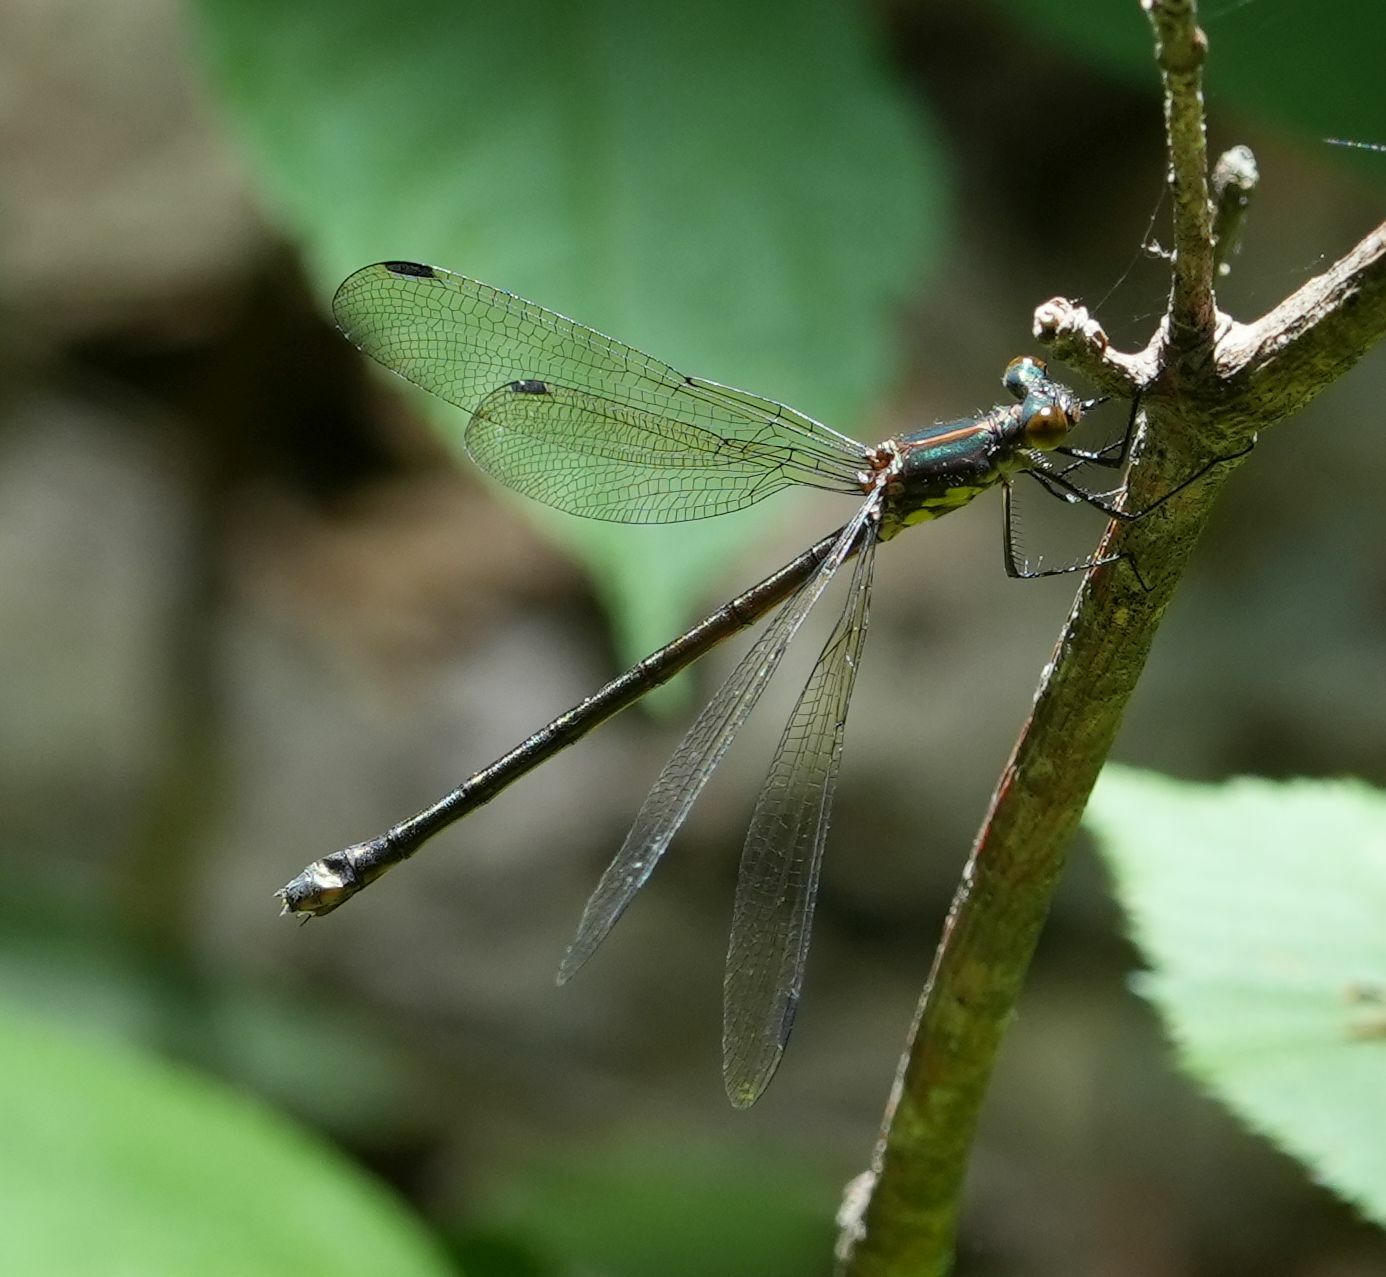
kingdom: Animalia
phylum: Arthropoda
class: Insecta
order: Odonata
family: Lestidae
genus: Lestes
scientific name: Lestes eurinus
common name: Amber-winged spreadwing
